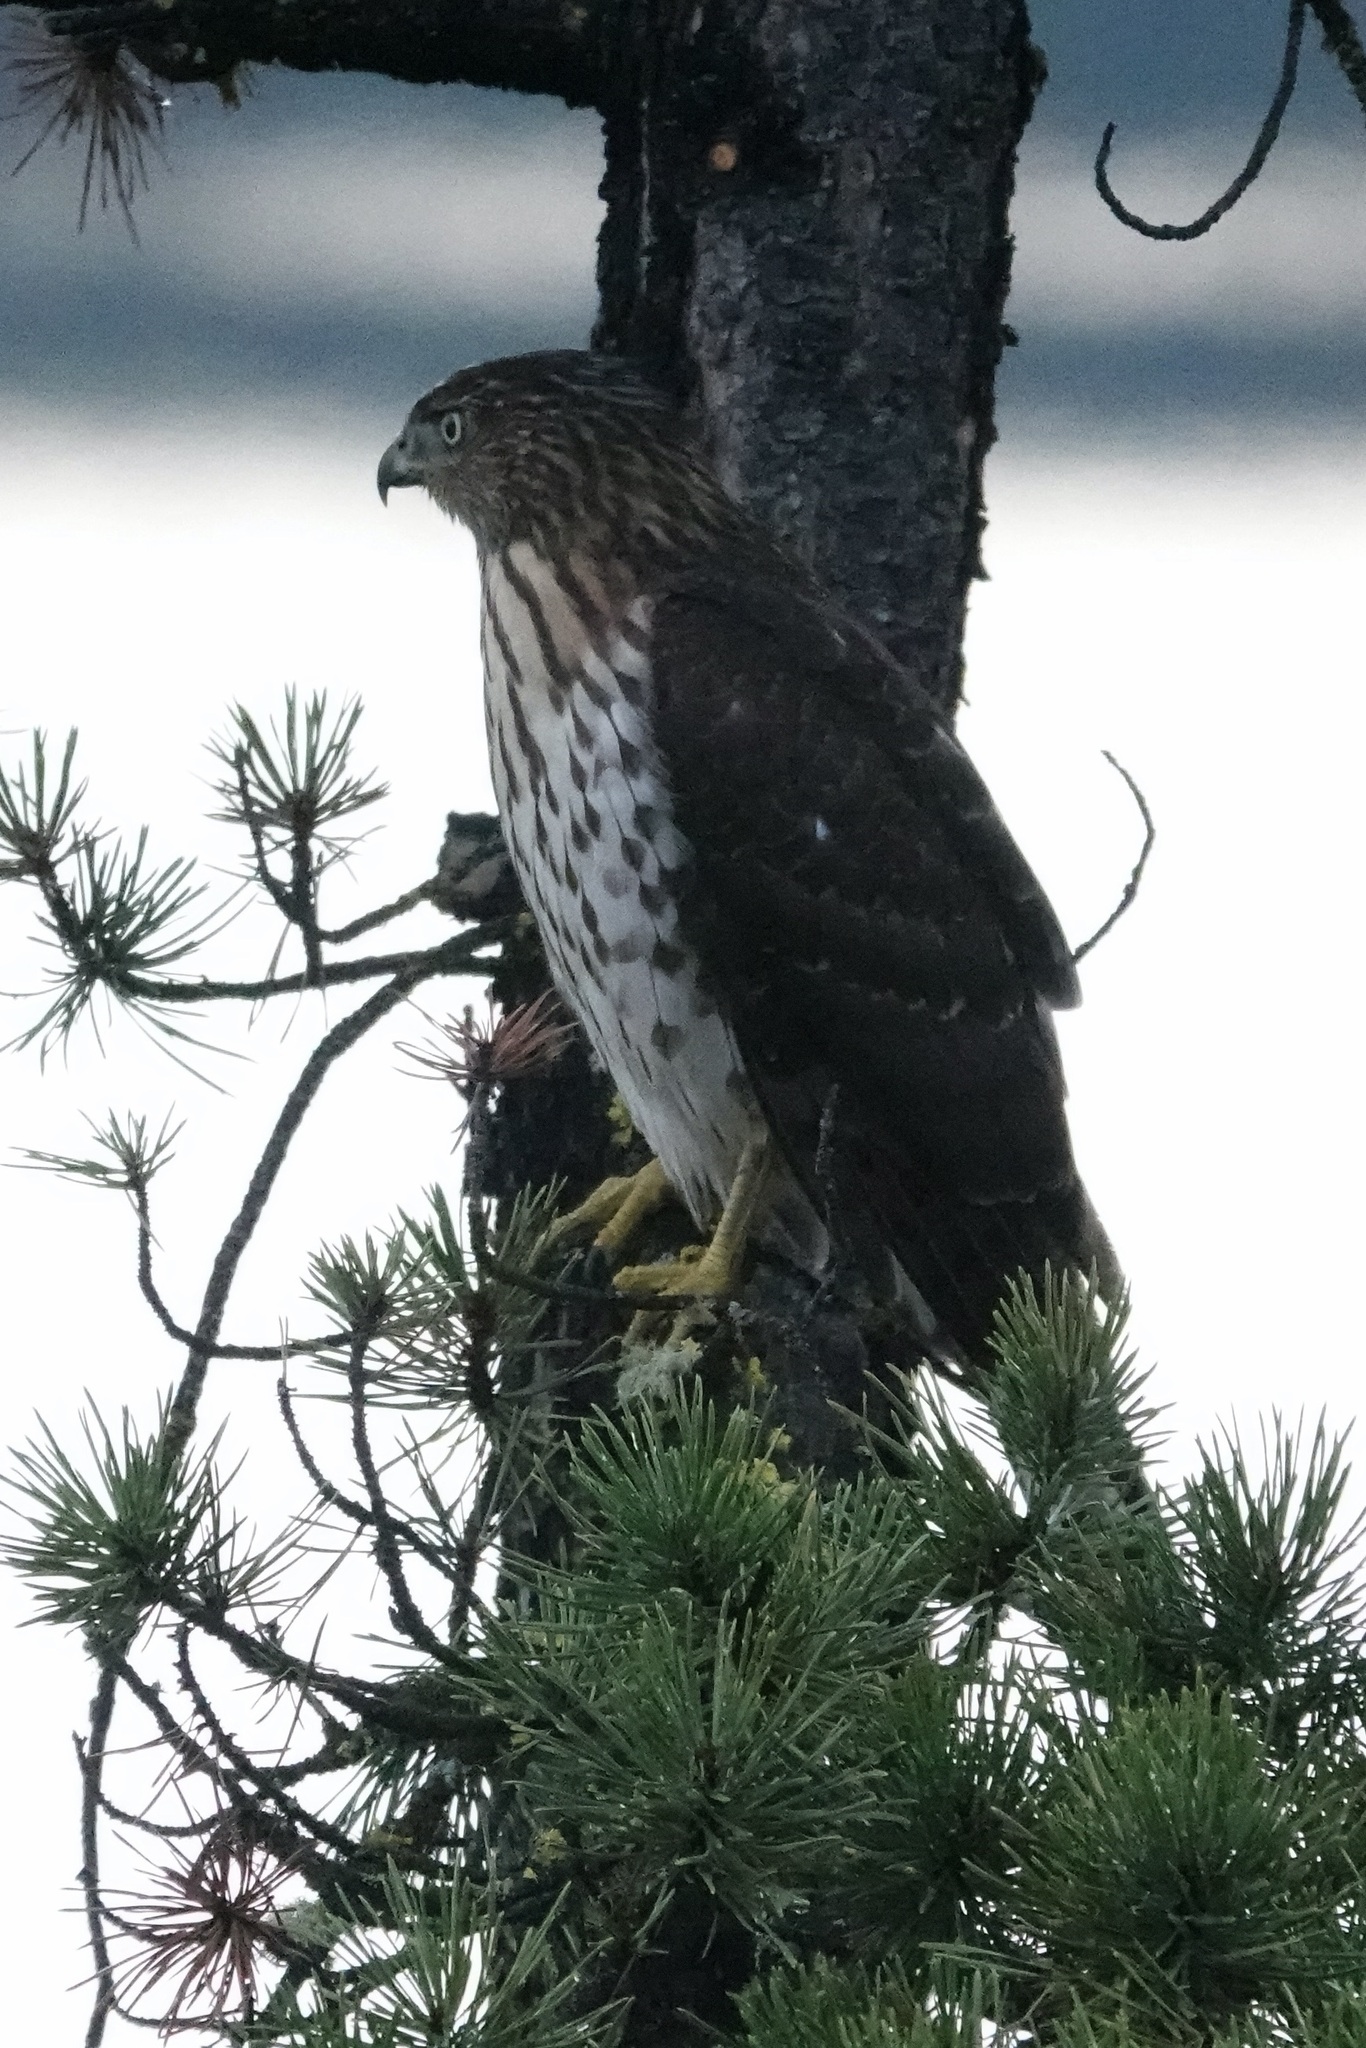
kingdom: Animalia
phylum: Chordata
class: Aves
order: Accipitriformes
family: Accipitridae
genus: Accipiter
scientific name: Accipiter cooperii
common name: Cooper's hawk
